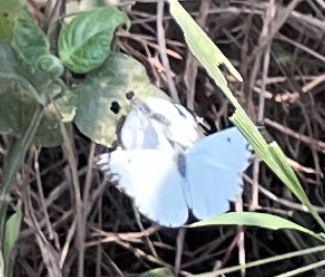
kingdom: Animalia
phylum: Arthropoda
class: Insecta
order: Lepidoptera
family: Pieridae
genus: Belenois
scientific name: Belenois aurota
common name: Brown-veined white
